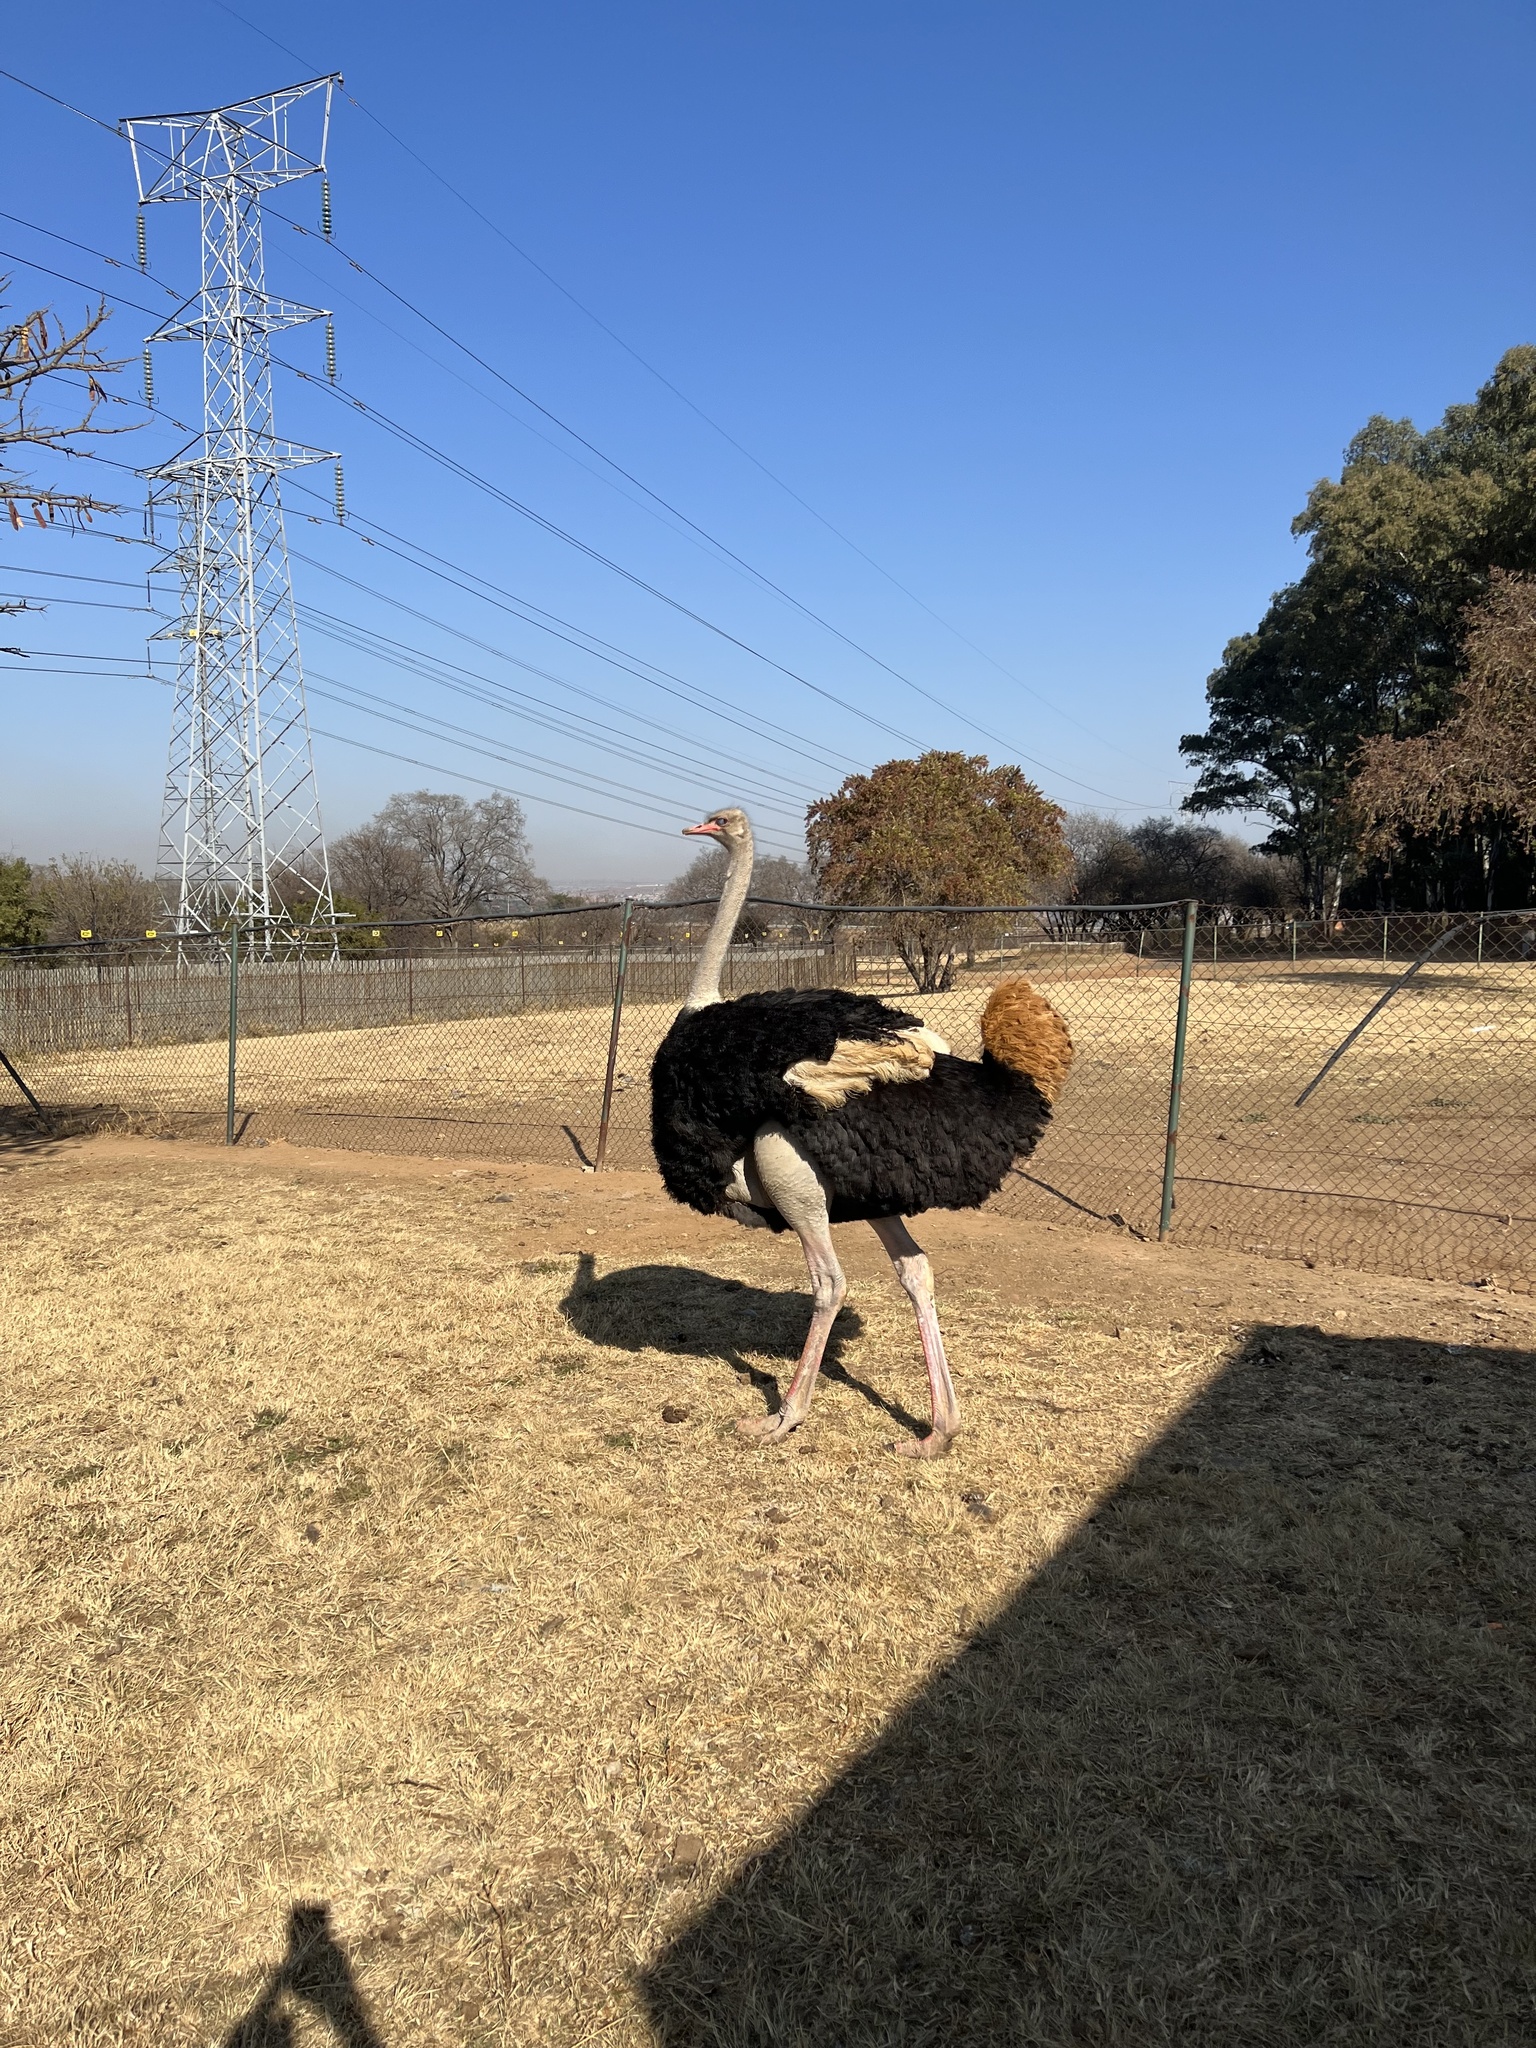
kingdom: Animalia
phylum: Chordata
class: Aves
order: Struthioniformes
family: Struthionidae
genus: Struthio
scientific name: Struthio camelus
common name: Common ostrich
